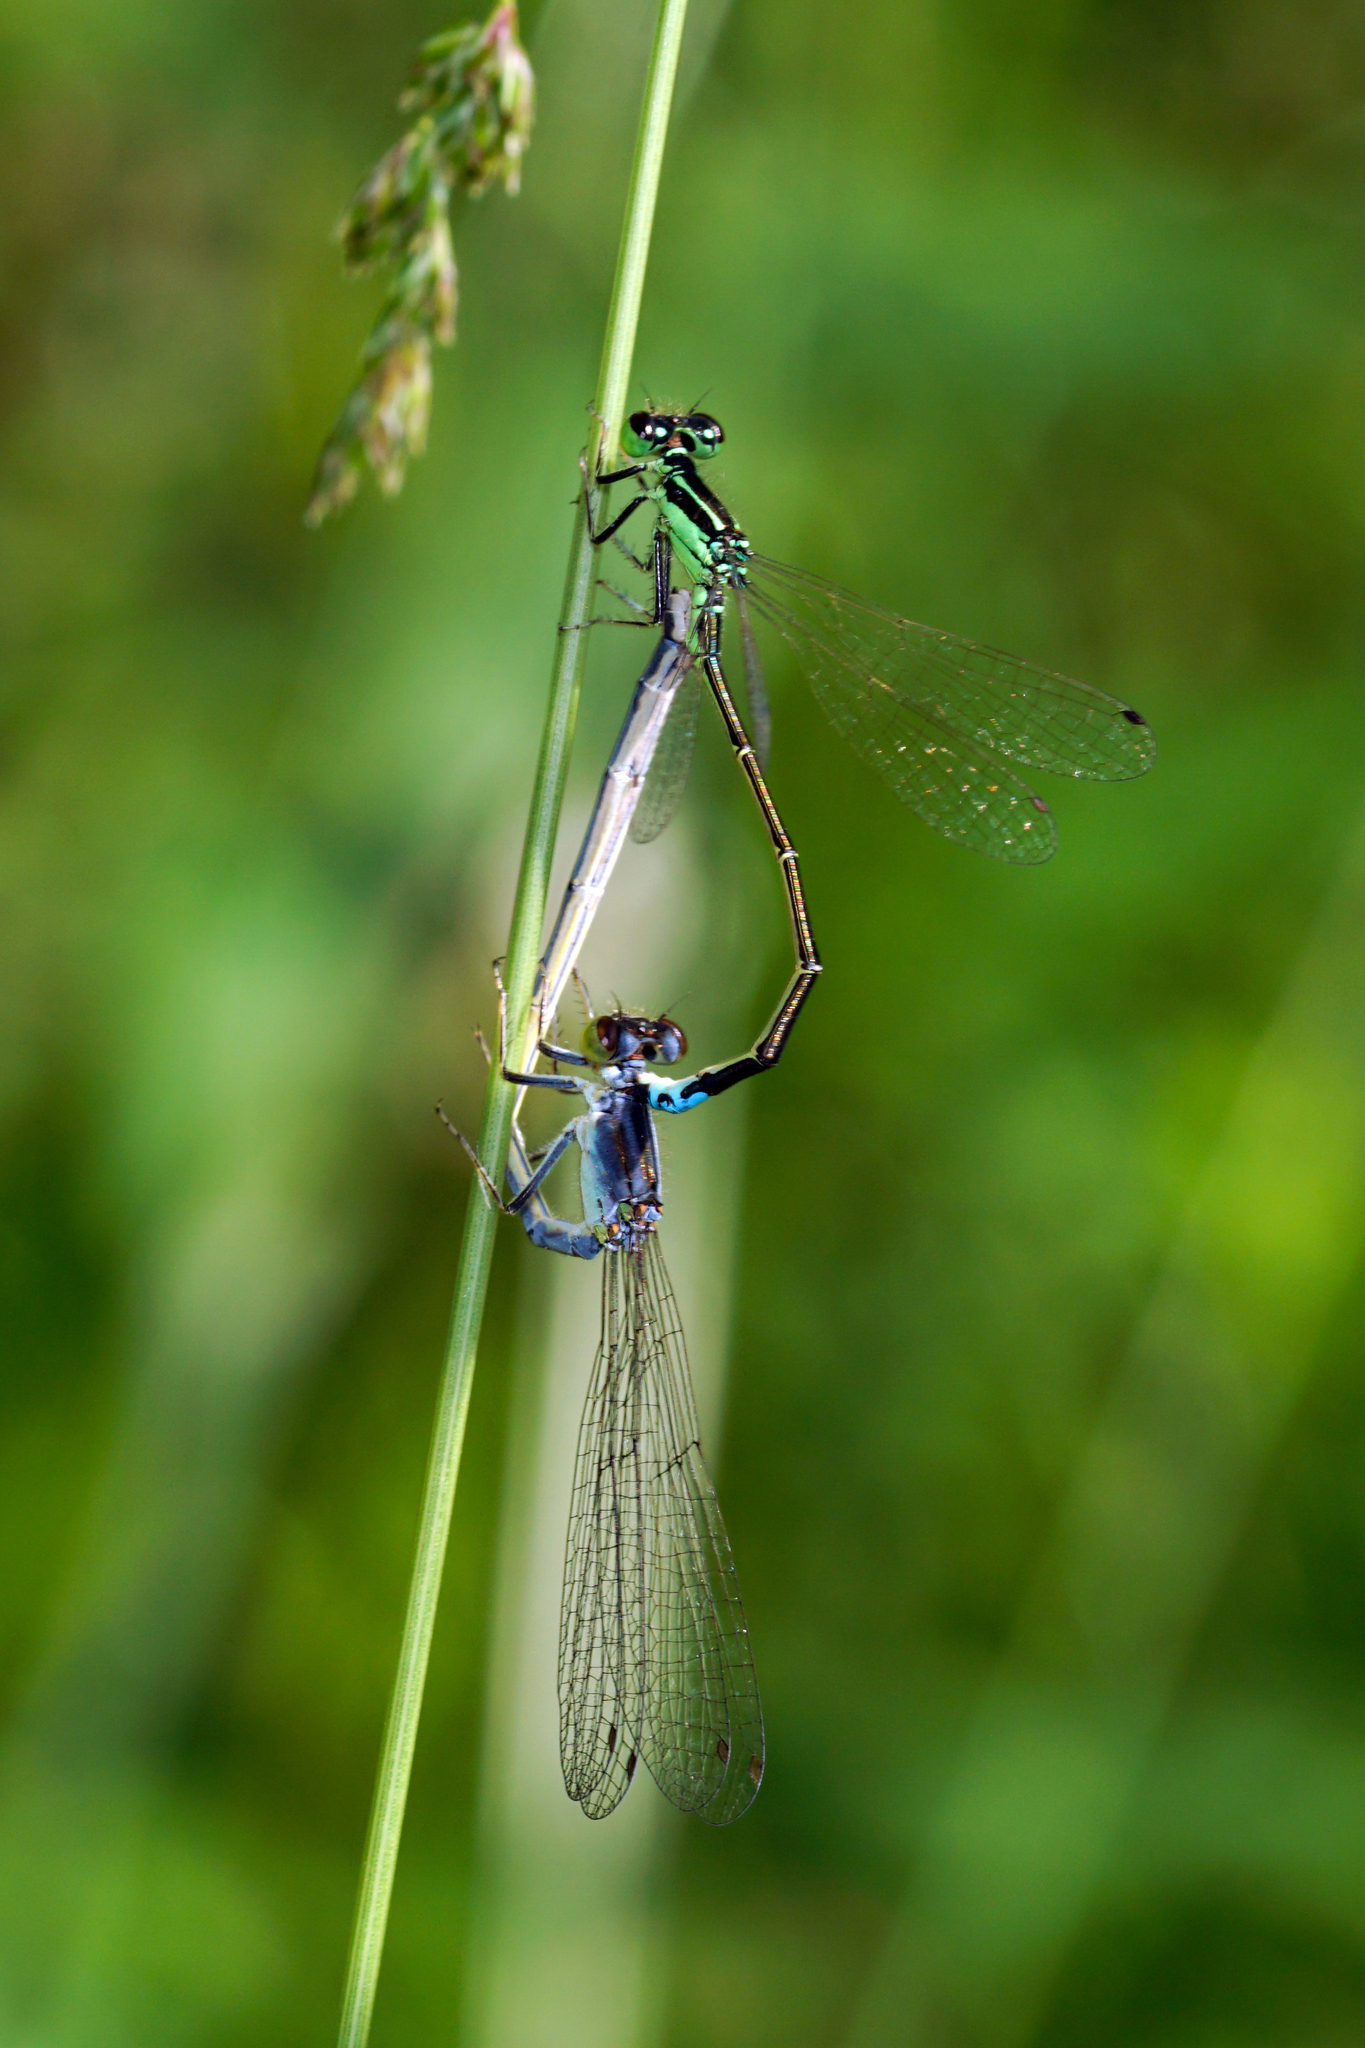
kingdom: Animalia
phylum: Arthropoda
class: Insecta
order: Odonata
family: Coenagrionidae
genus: Ischnura
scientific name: Ischnura verticalis
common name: Eastern forktail
